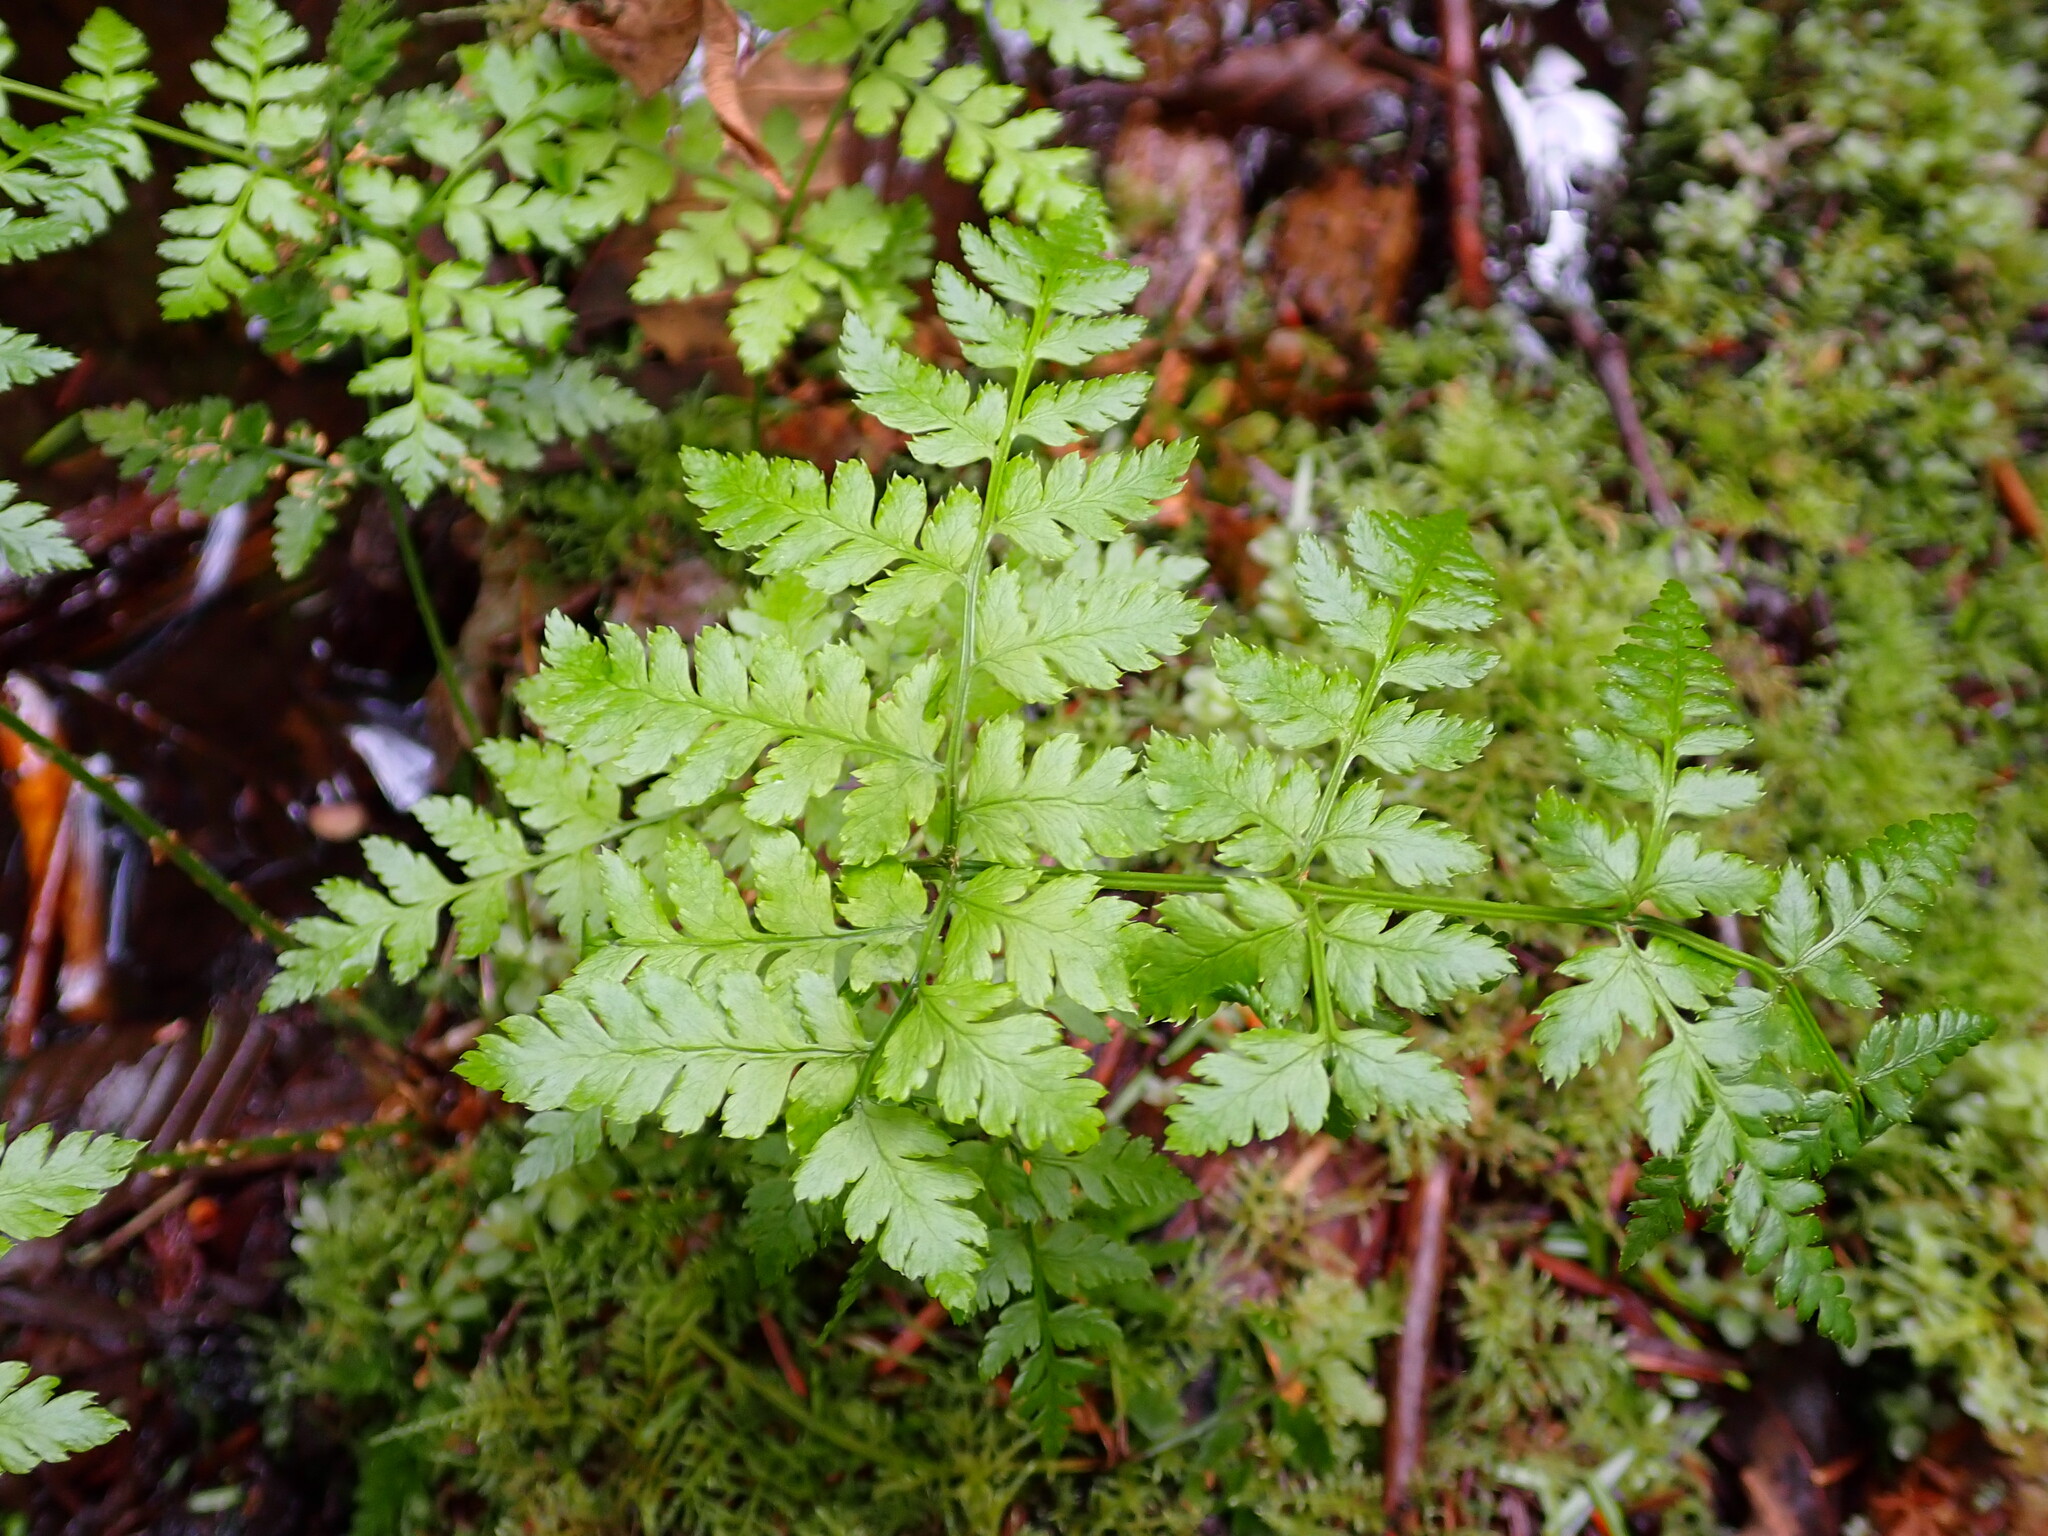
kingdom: Plantae
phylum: Tracheophyta
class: Polypodiopsida
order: Polypodiales
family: Dryopteridaceae
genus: Dryopteris
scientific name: Dryopteris expansa
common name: Northern buckler fern
